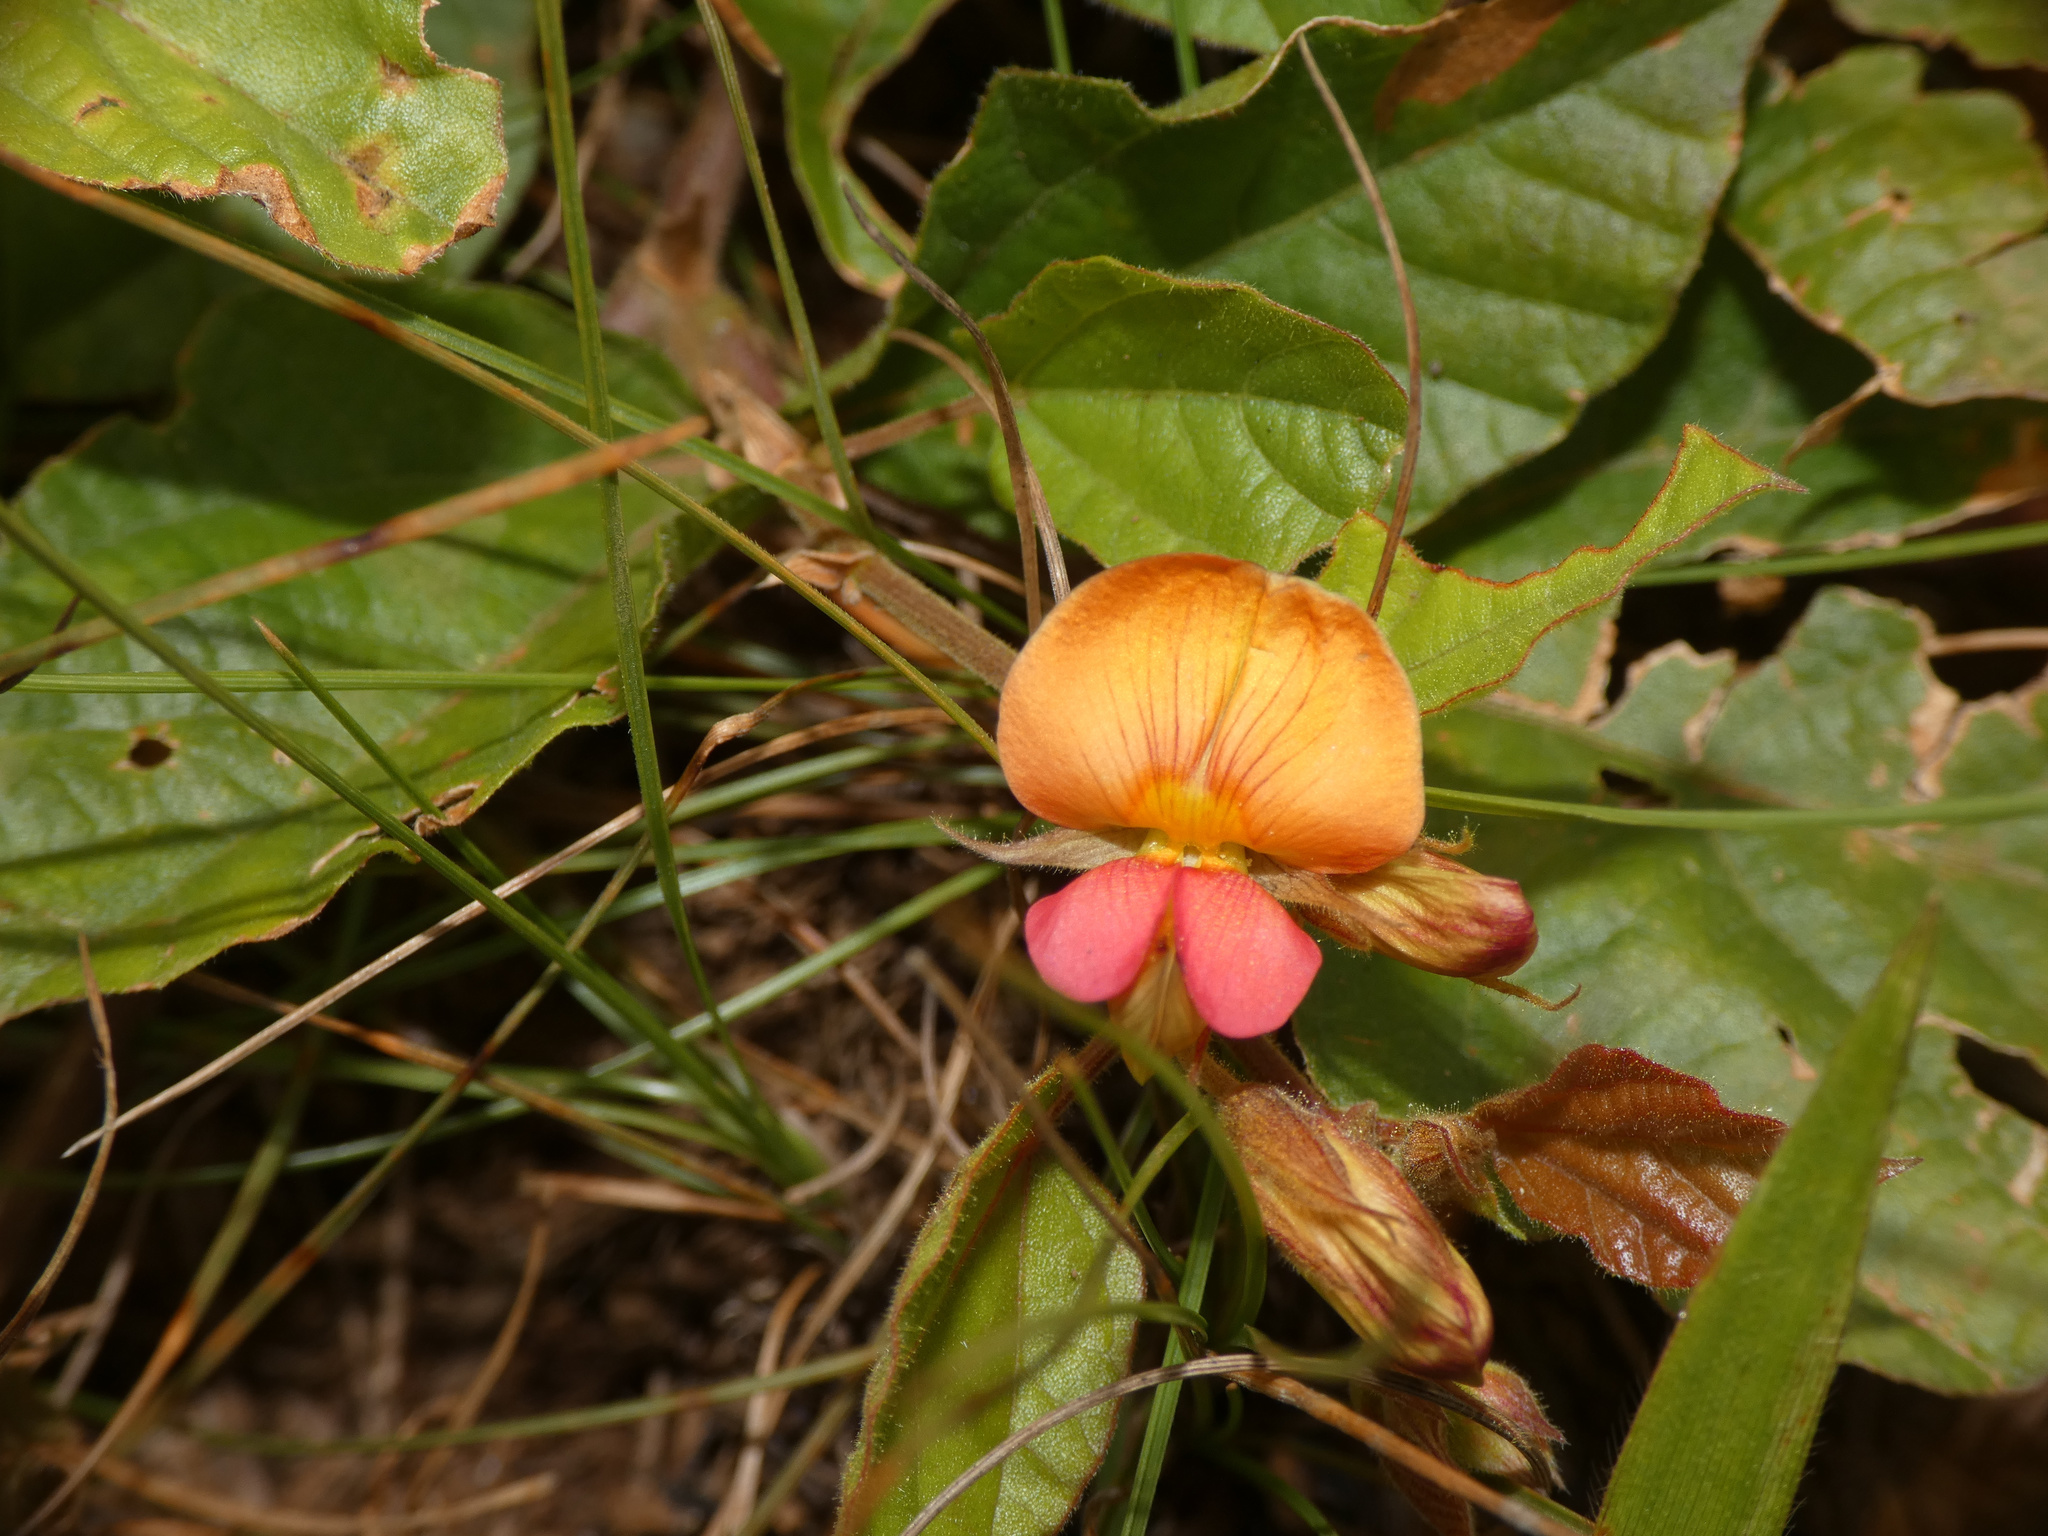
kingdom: Plantae
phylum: Tracheophyta
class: Magnoliopsida
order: Fabales
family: Fabaceae
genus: Rhynchosia
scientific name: Rhynchosia monophylla
